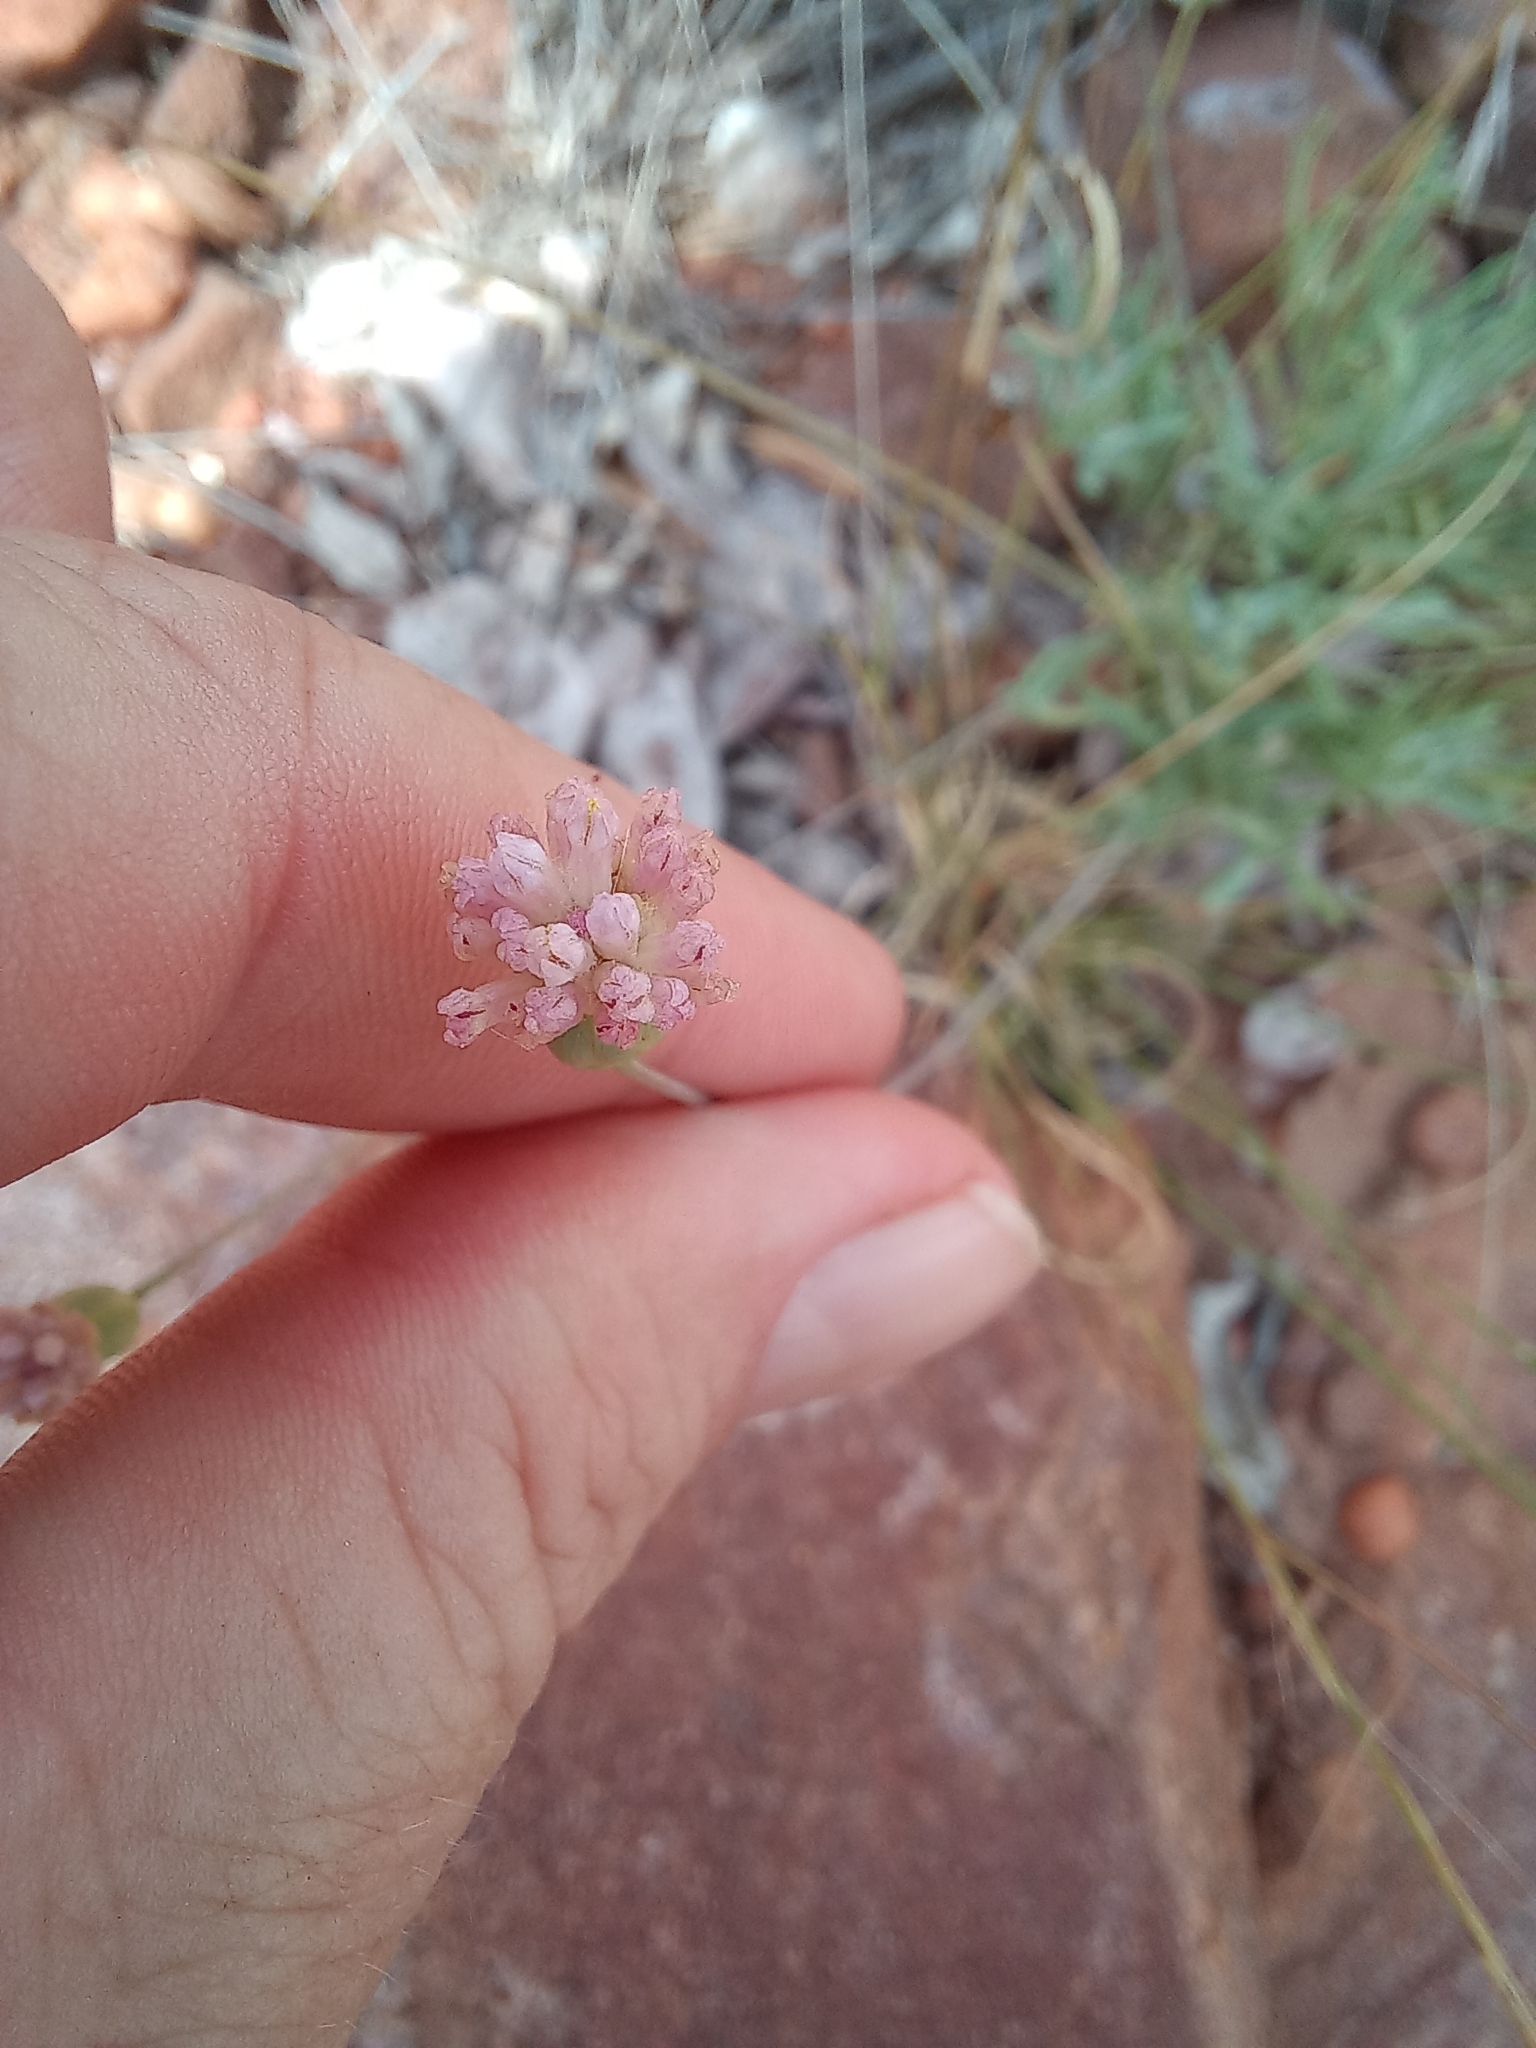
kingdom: Plantae
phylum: Tracheophyta
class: Magnoliopsida
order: Asterales
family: Asteraceae
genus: Emilia
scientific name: Emilia transvaalensis
